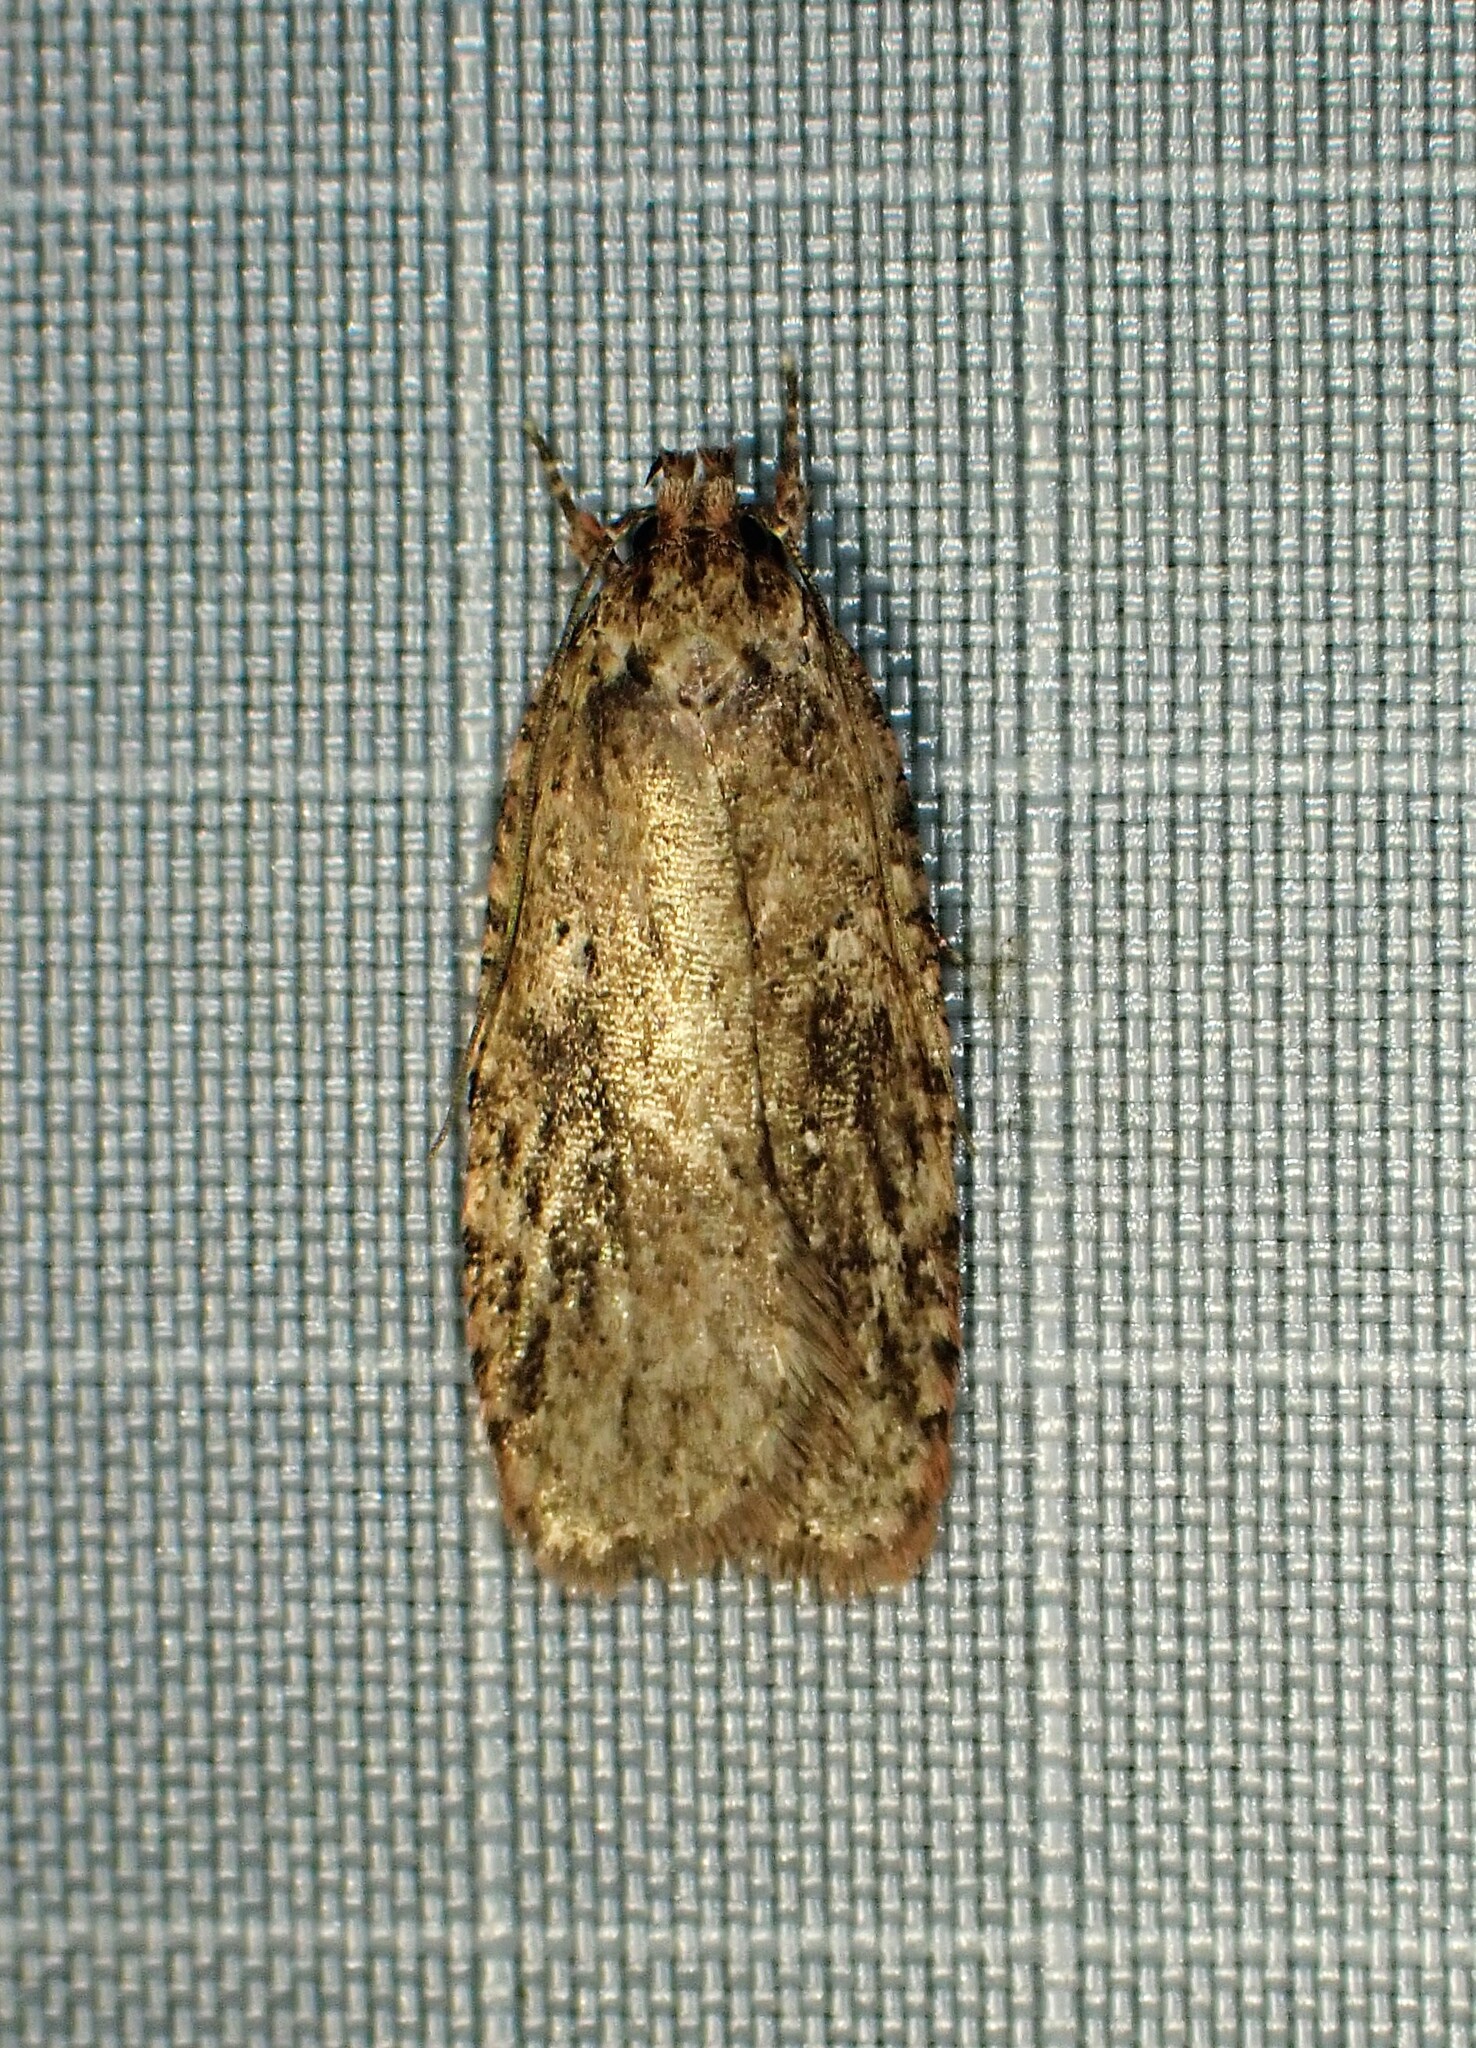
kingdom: Animalia
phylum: Arthropoda
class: Insecta
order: Lepidoptera
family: Depressariidae
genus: Agonopterix
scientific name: Agonopterix pulvipennella
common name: Goldenrod leafffolder
